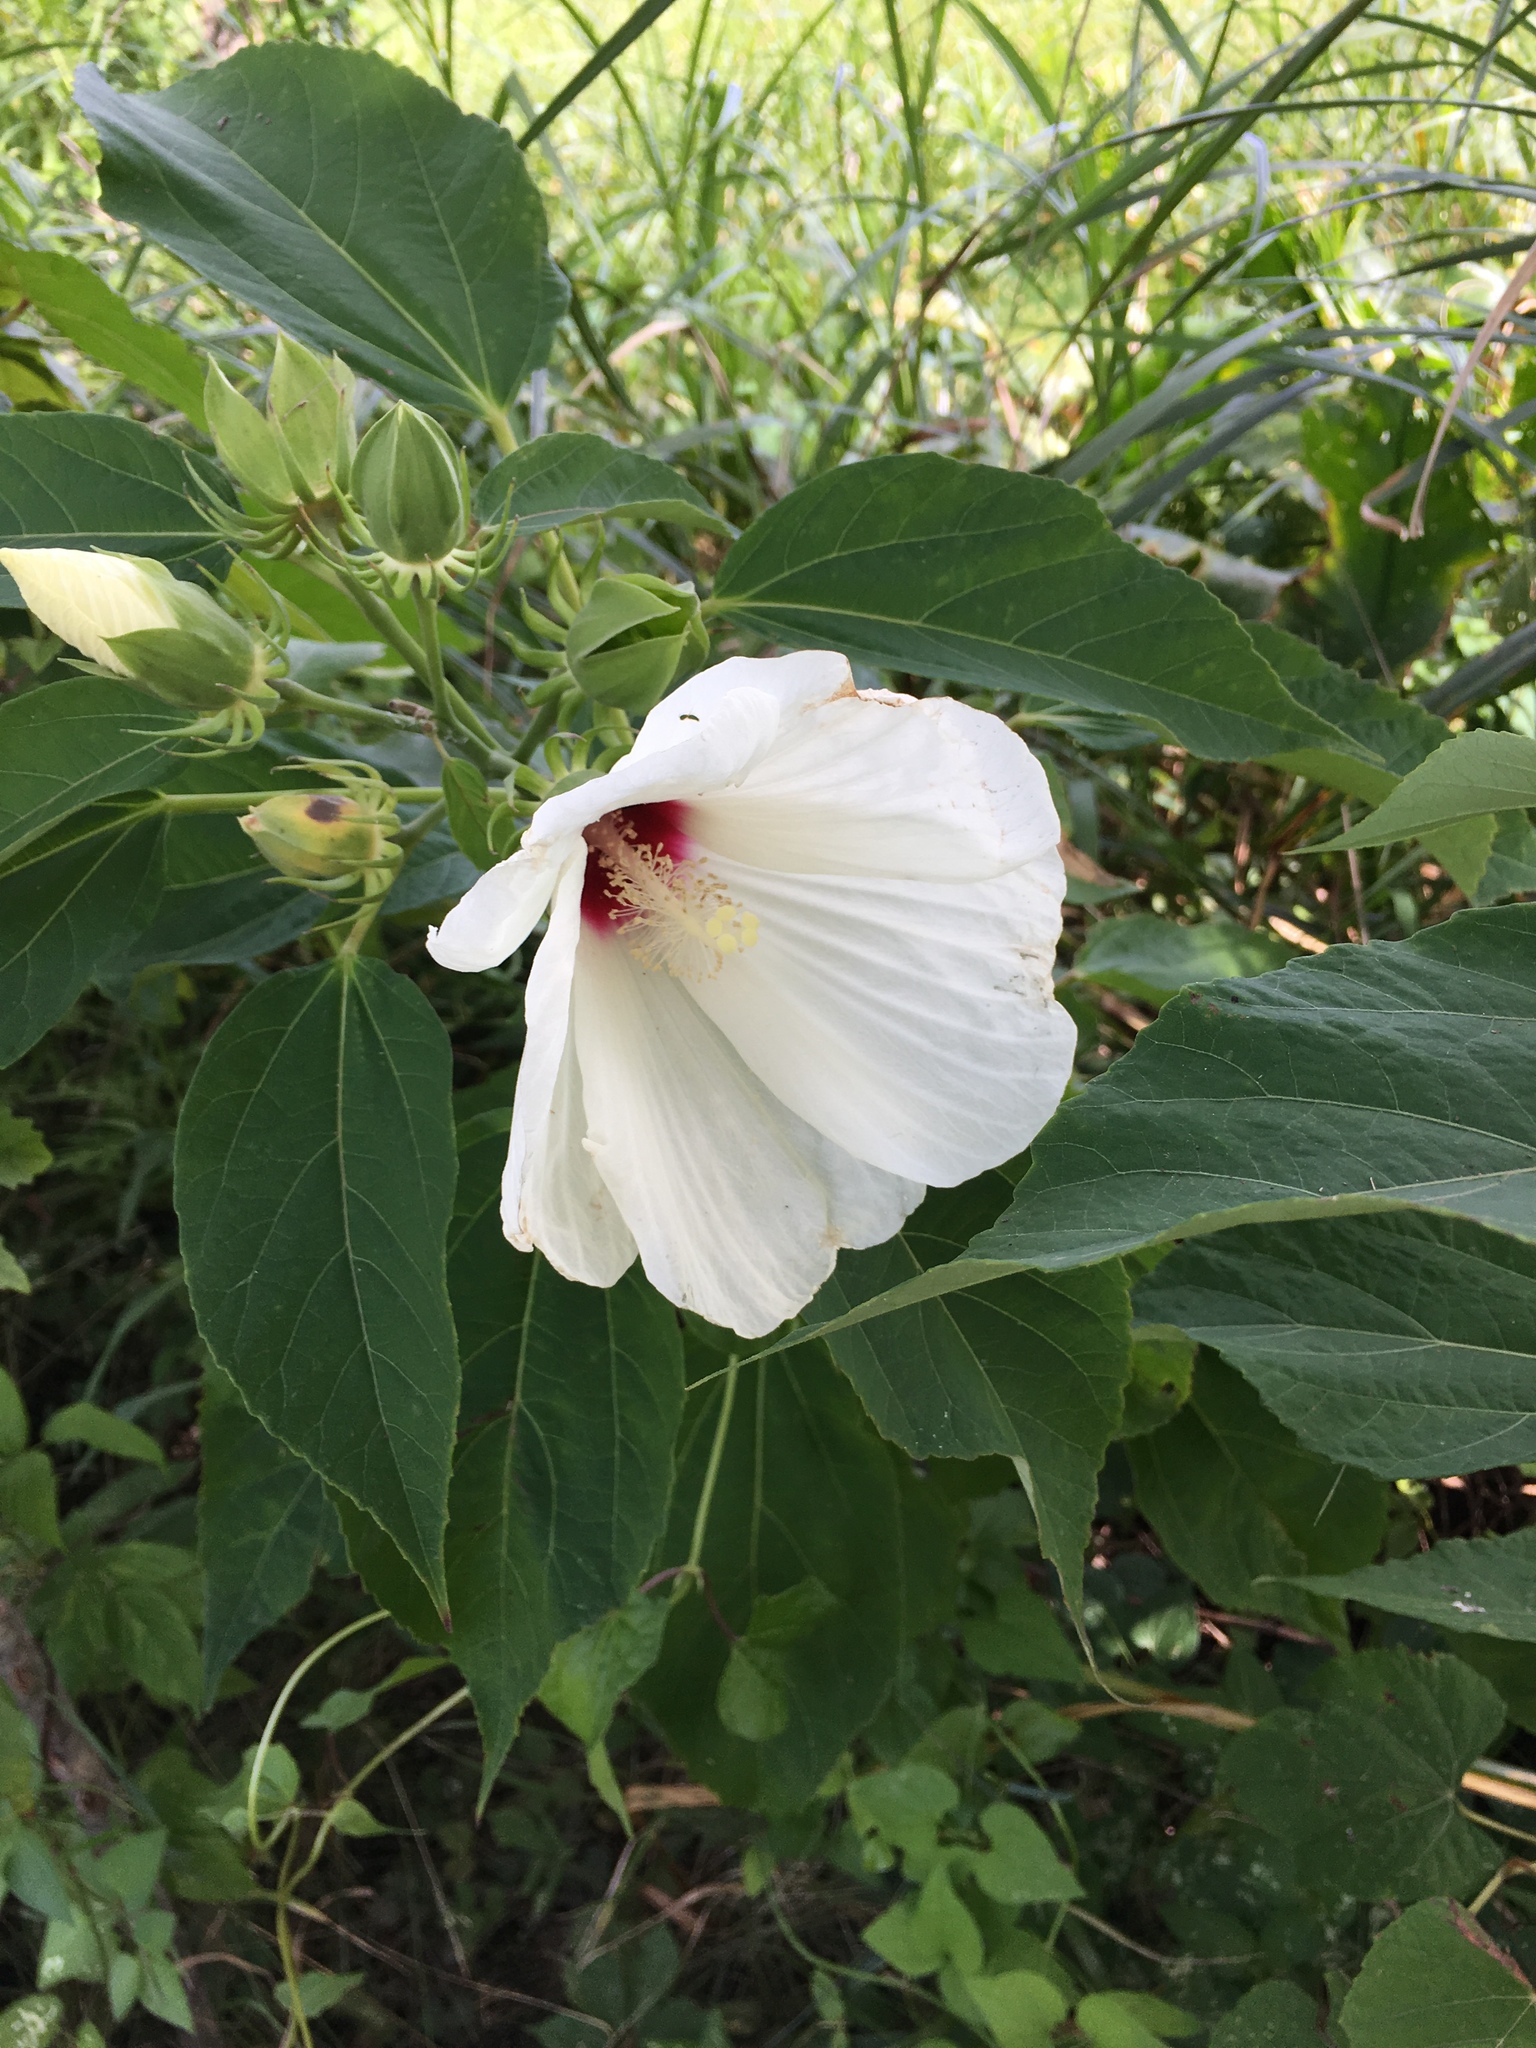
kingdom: Plantae
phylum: Tracheophyta
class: Magnoliopsida
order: Malvales
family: Malvaceae
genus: Hibiscus
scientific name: Hibiscus moscheutos
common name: Common rose-mallow
